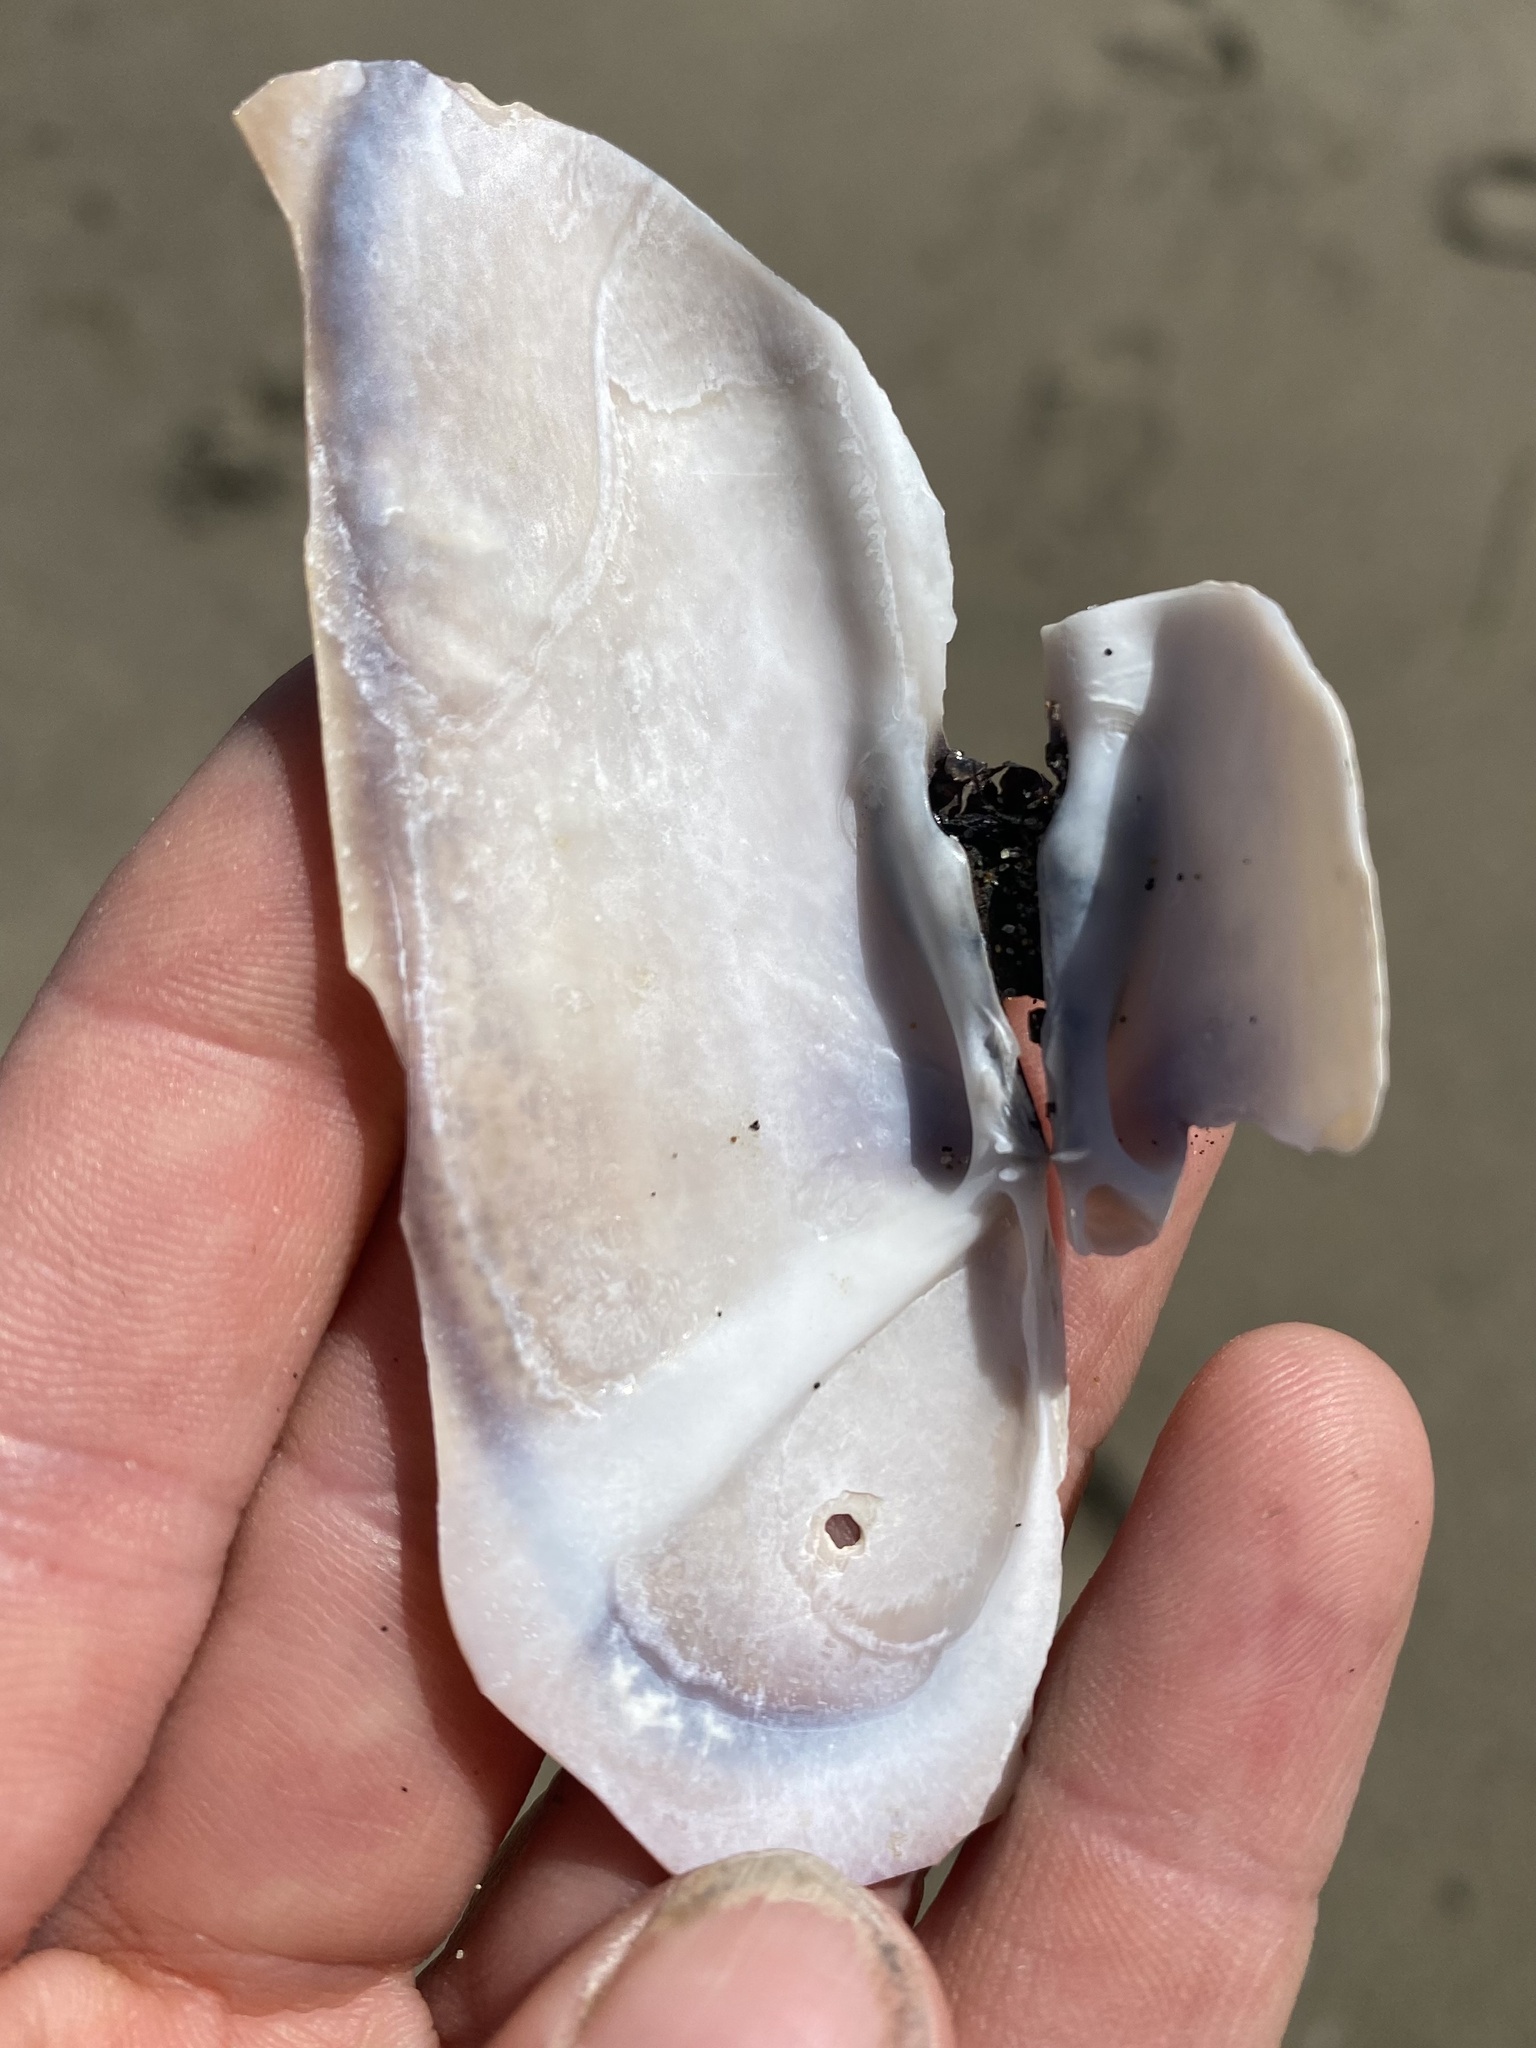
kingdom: Animalia
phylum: Mollusca
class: Bivalvia
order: Adapedonta
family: Pharidae
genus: Siliqua
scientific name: Siliqua patula
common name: Pacific razor clam
